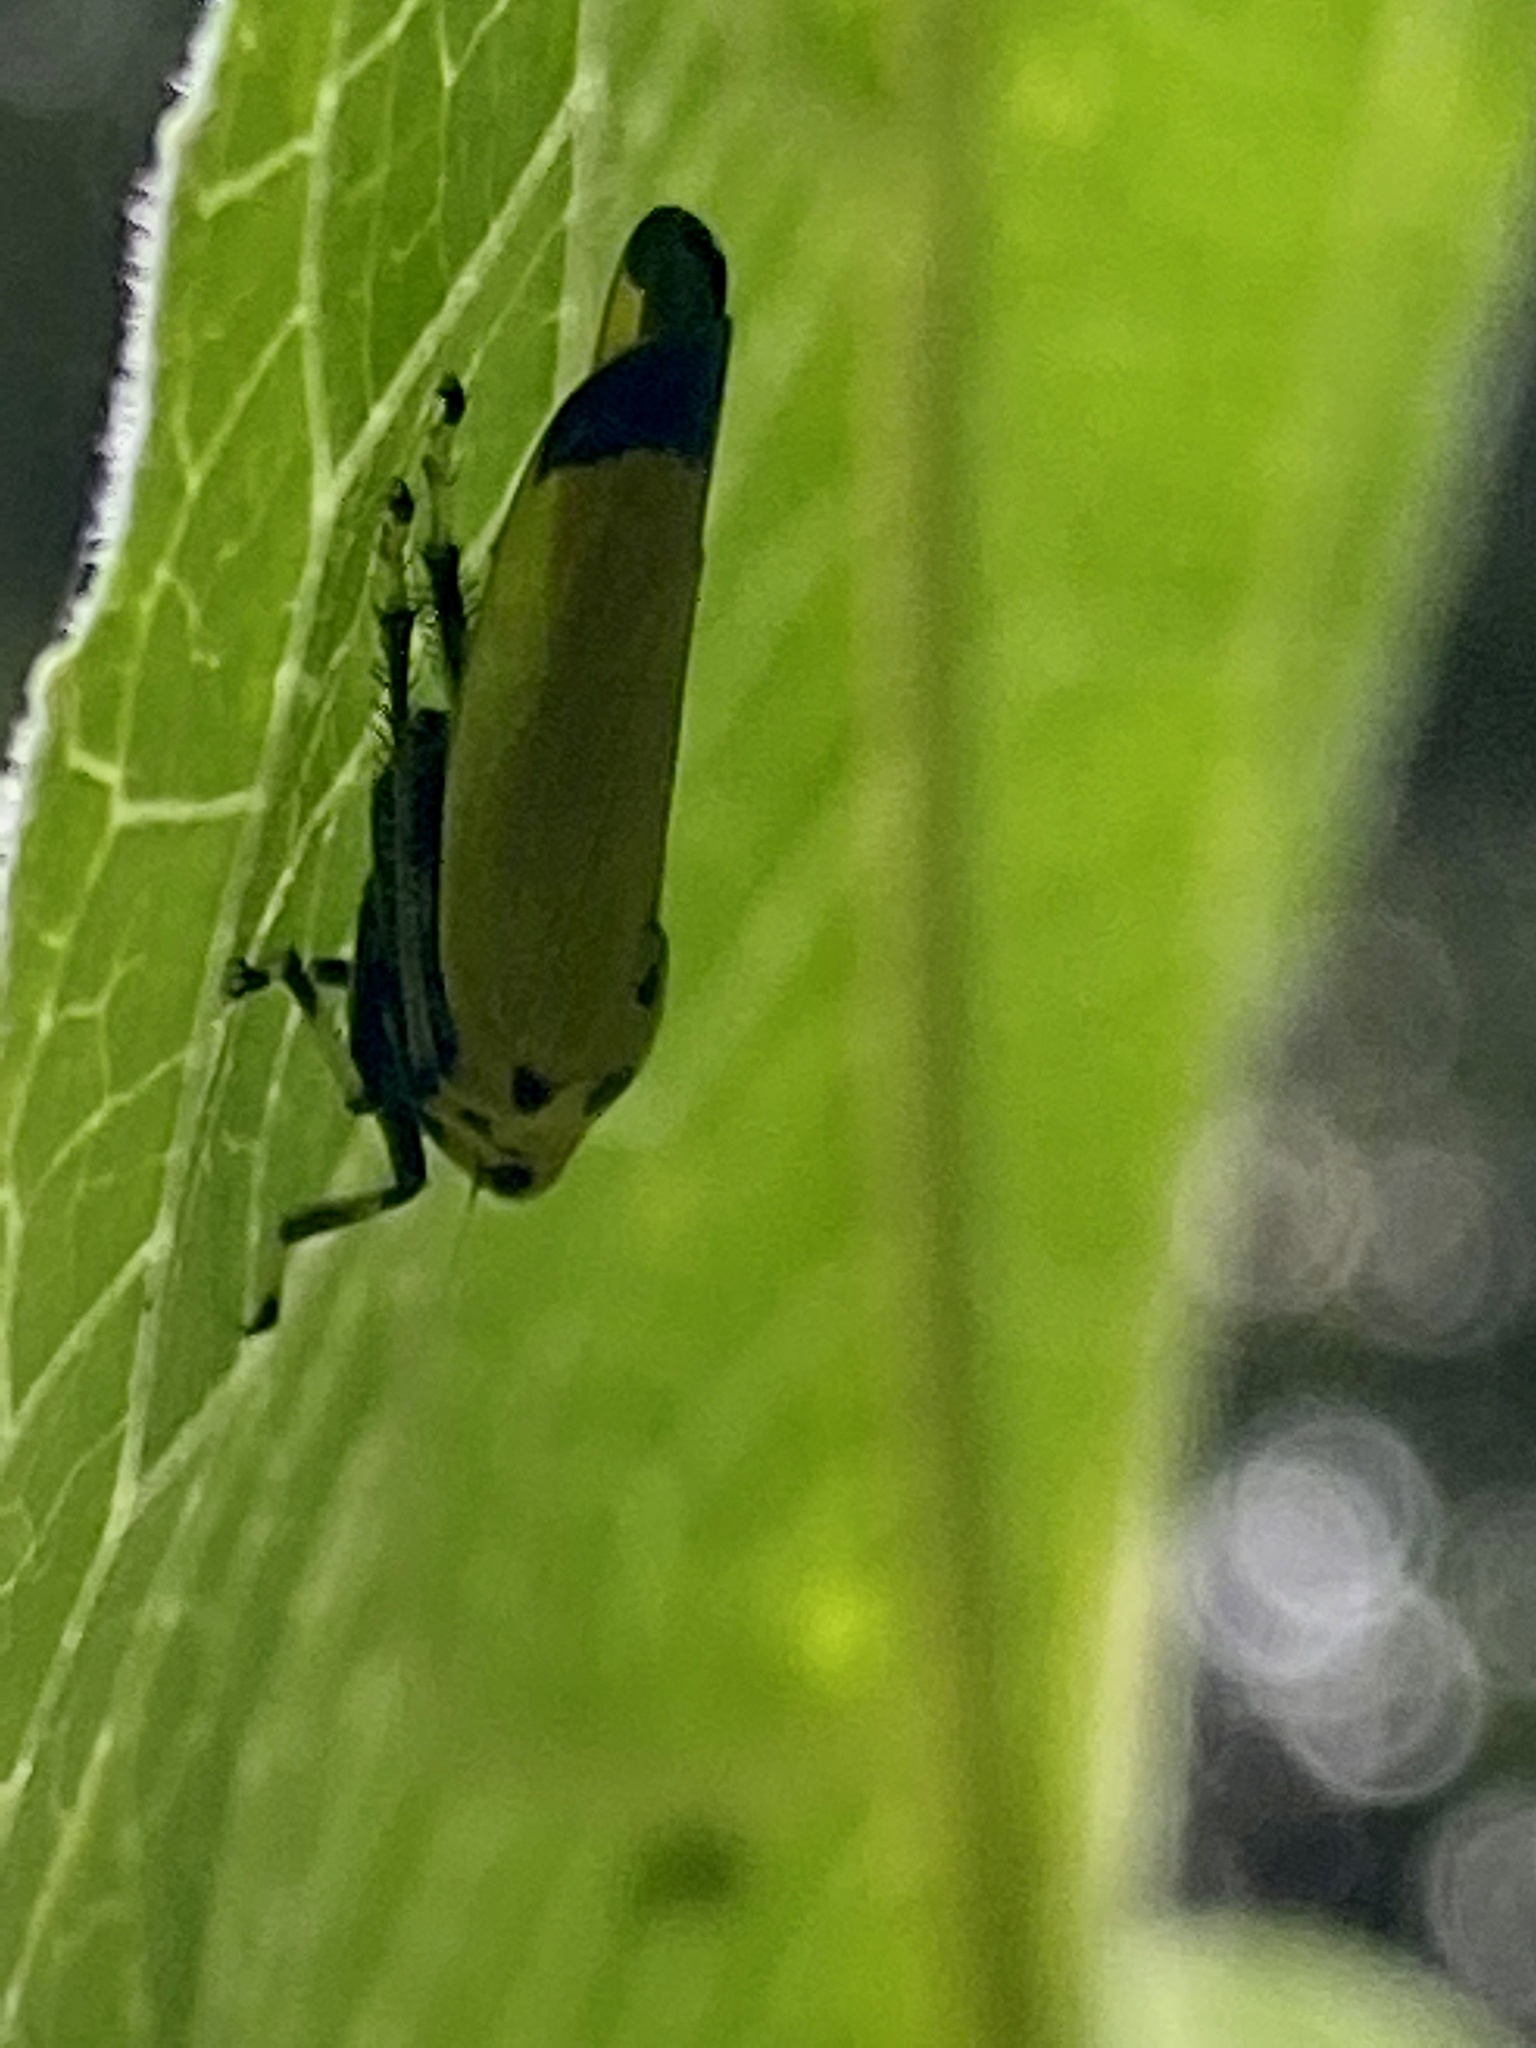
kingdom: Animalia
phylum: Arthropoda
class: Insecta
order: Hemiptera
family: Cicadellidae
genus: Bothrogonia
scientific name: Bothrogonia ferruginea
